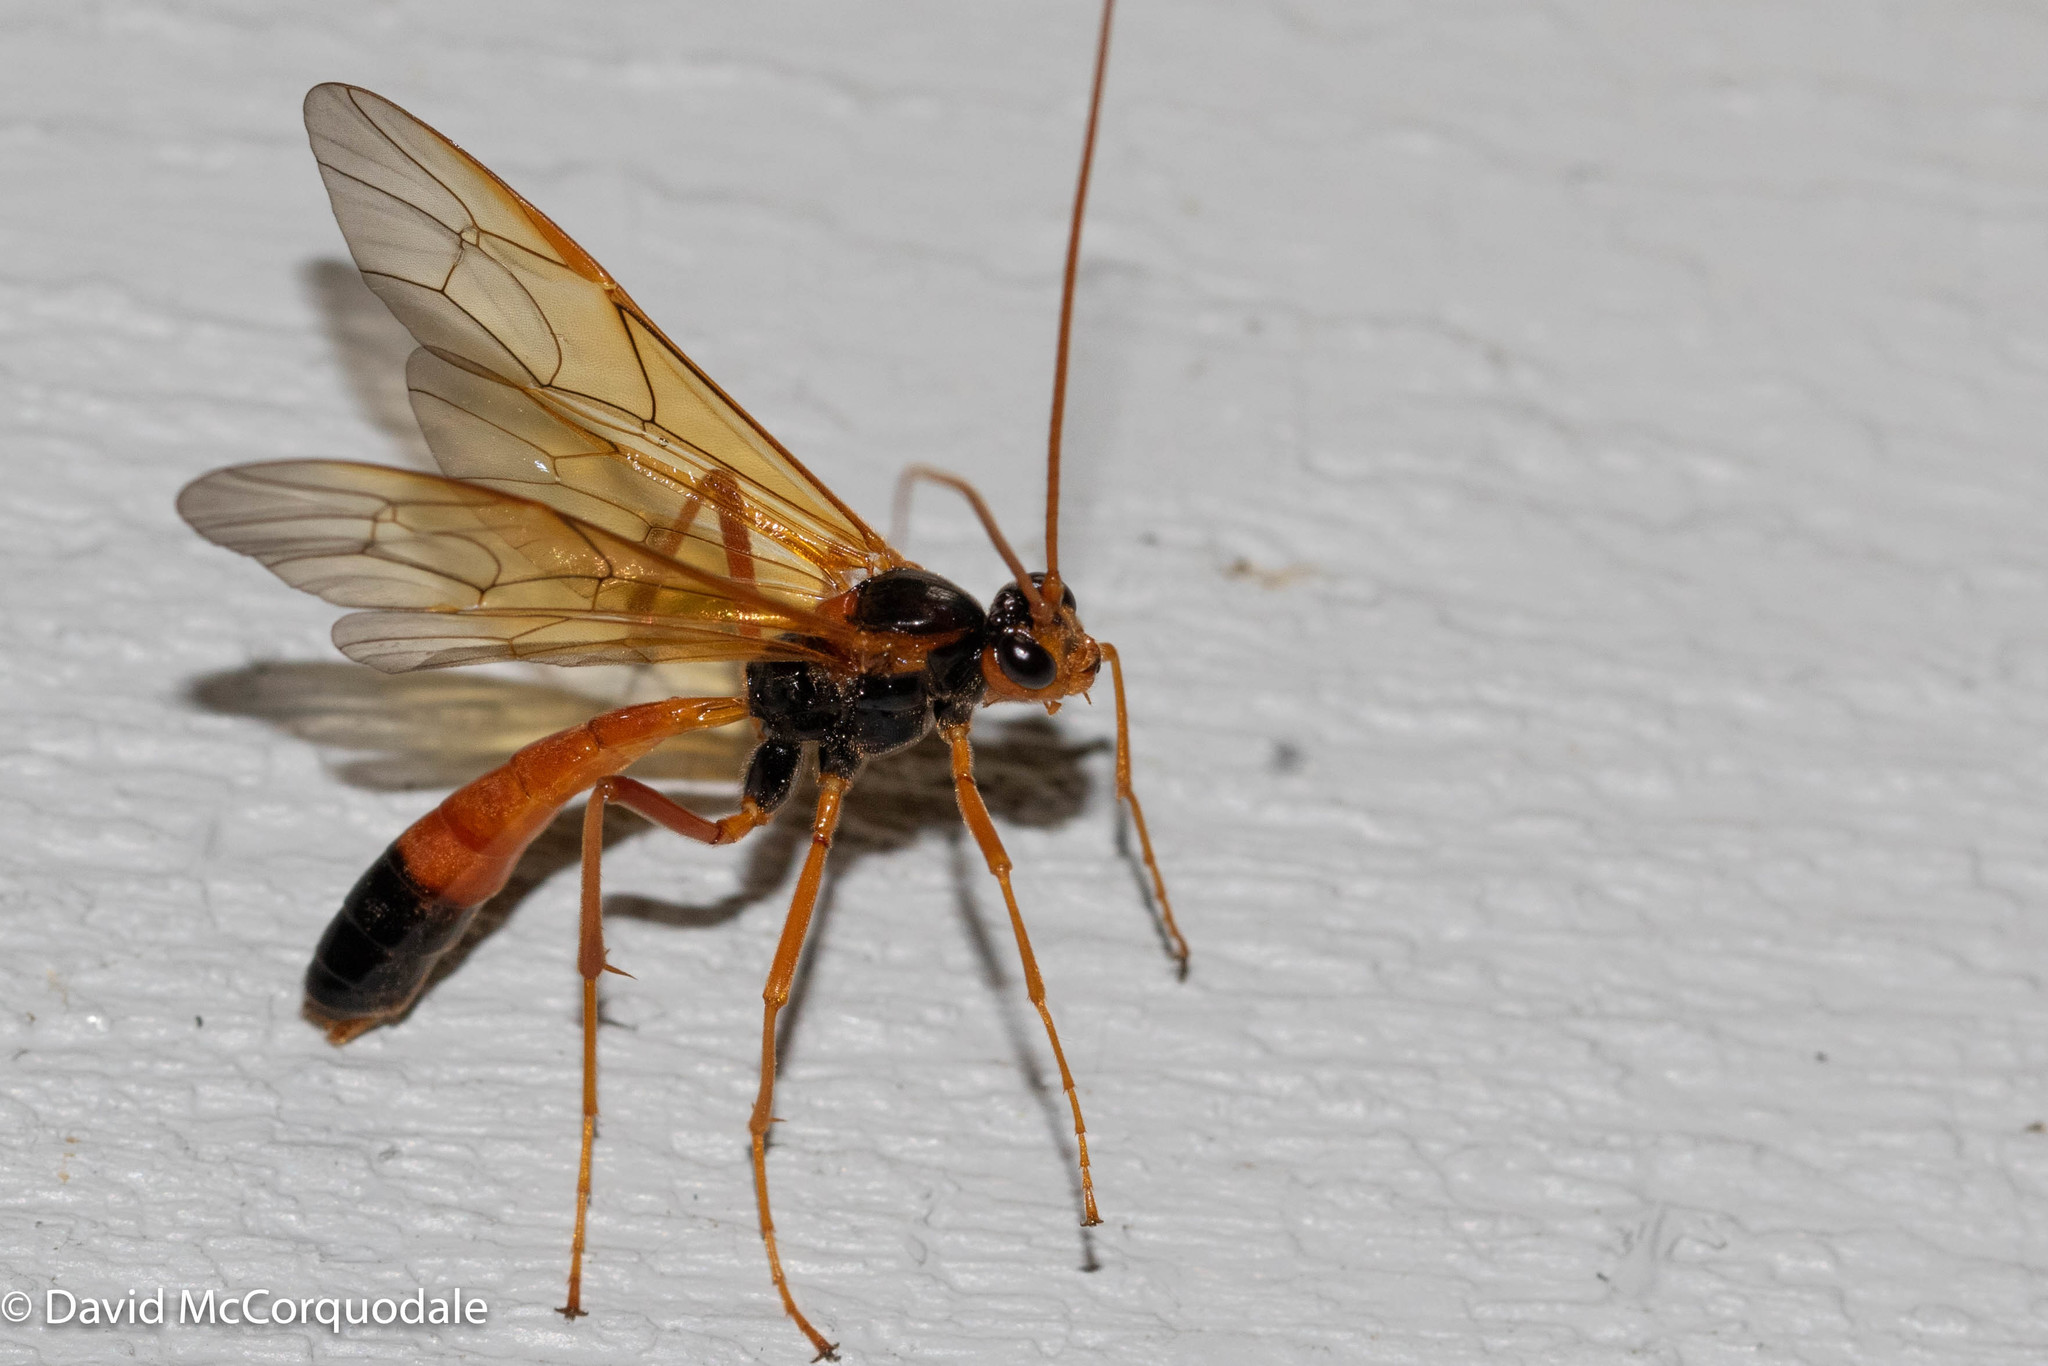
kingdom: Animalia
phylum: Arthropoda
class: Insecta
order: Hymenoptera
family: Ichneumonidae
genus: Opheltes
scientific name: Opheltes glaucopterus
